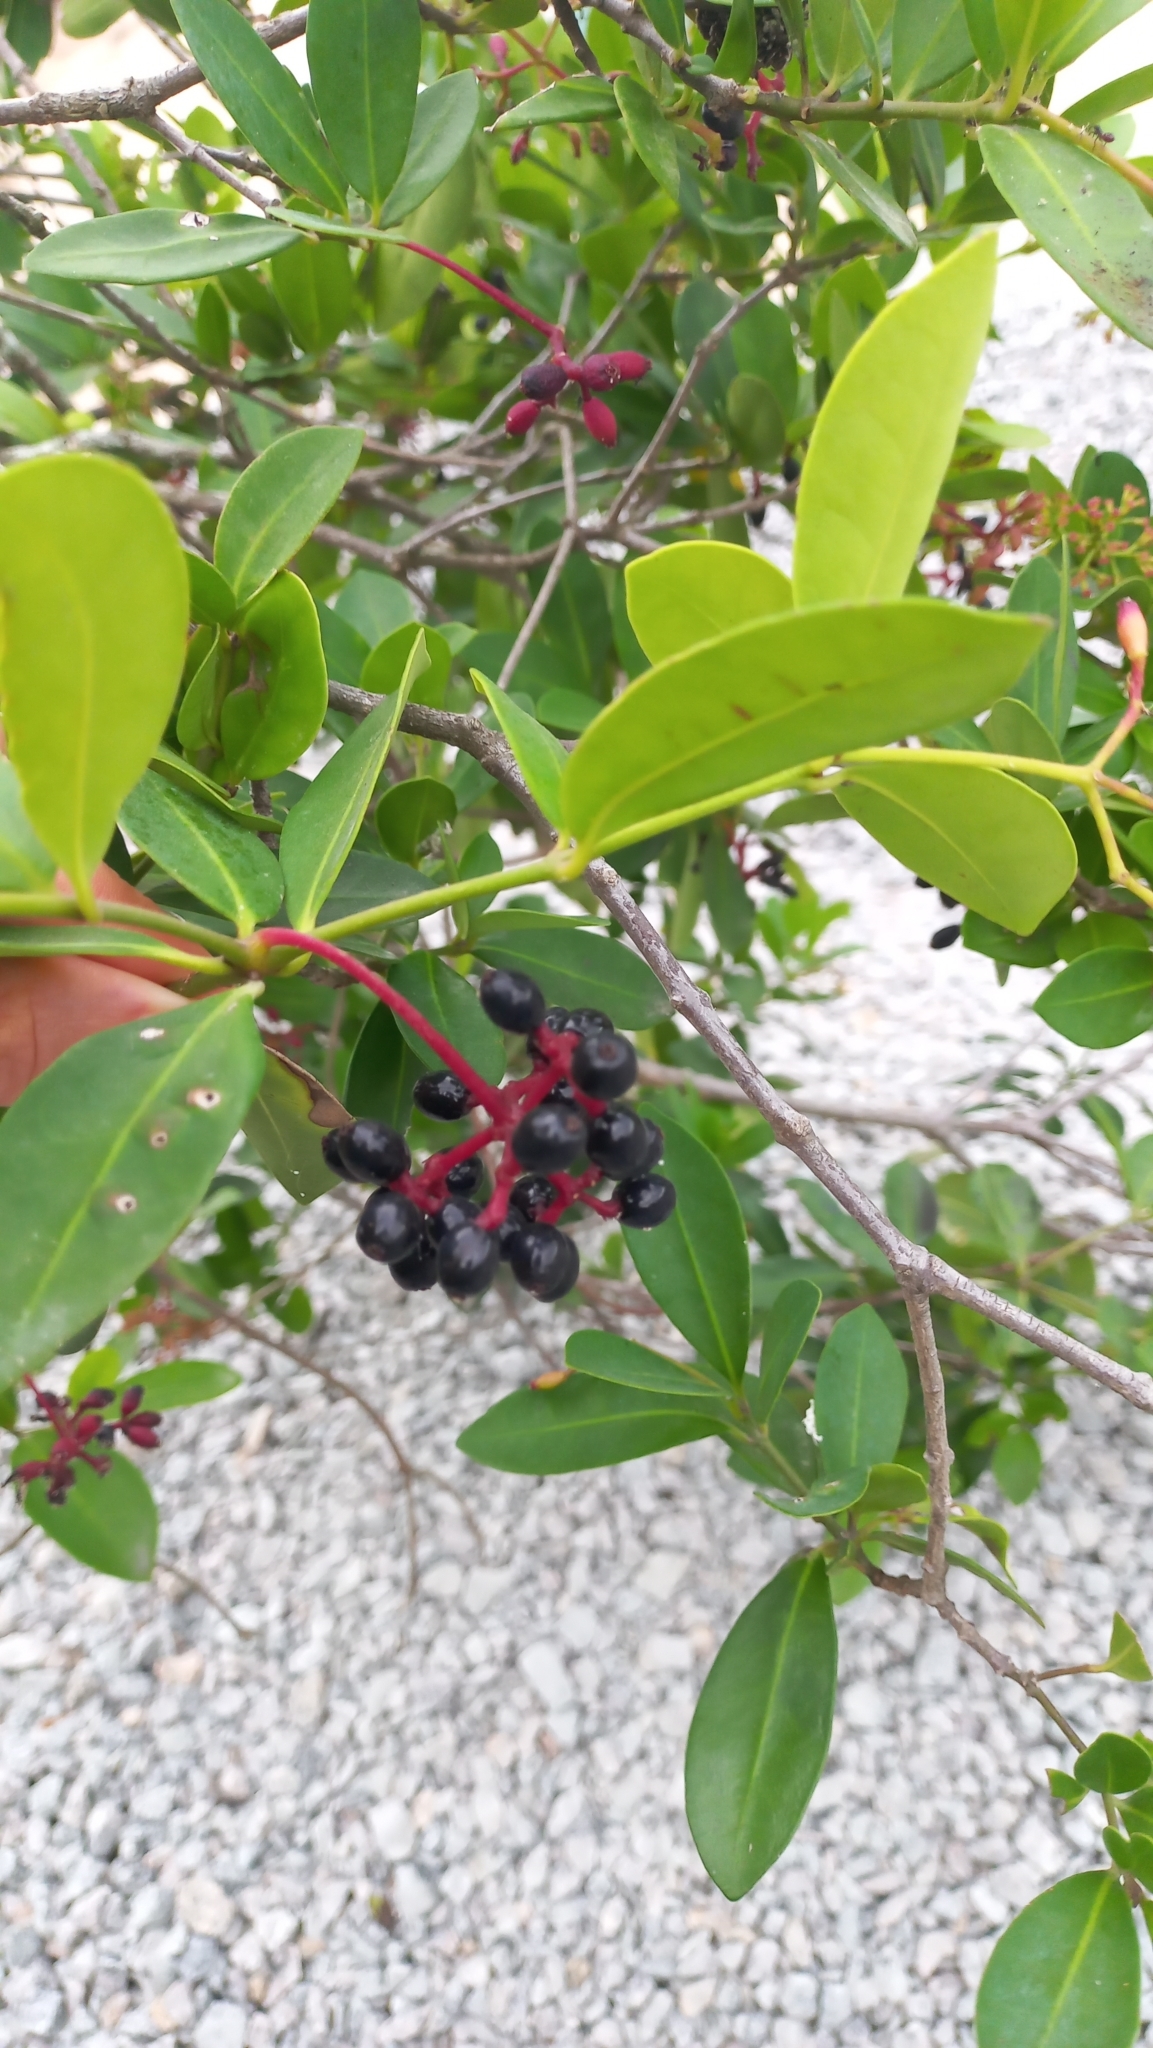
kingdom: Plantae
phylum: Tracheophyta
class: Magnoliopsida
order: Caryophyllales
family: Nyctaginaceae
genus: Guapira
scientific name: Guapira opposita
